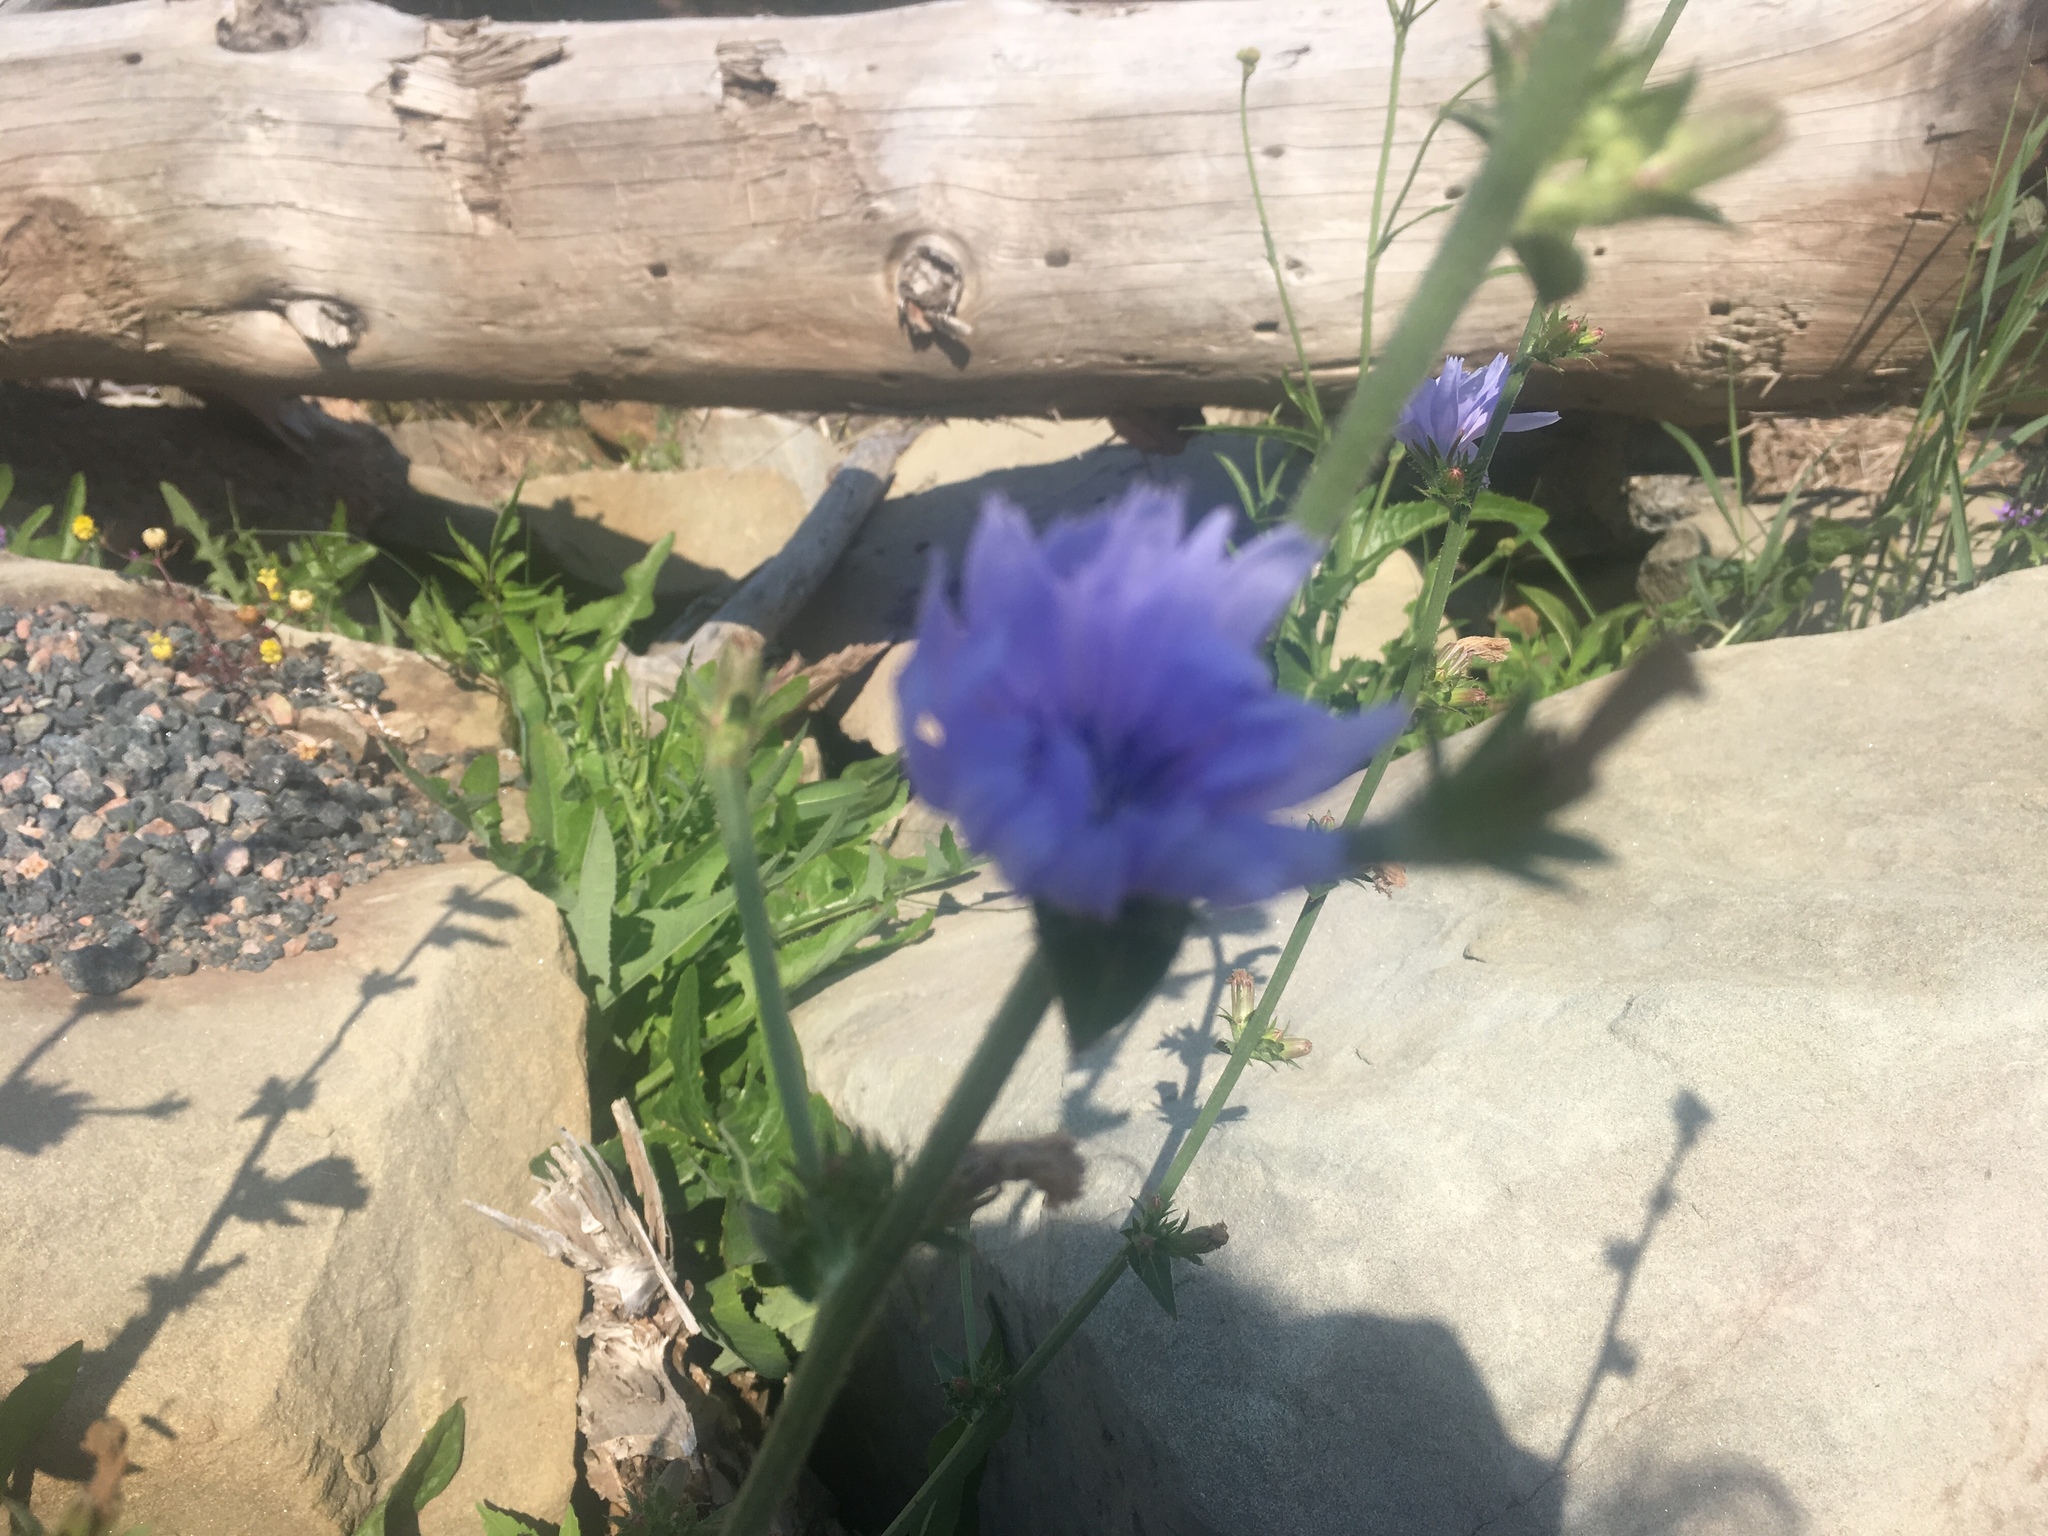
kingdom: Plantae
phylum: Tracheophyta
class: Magnoliopsida
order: Asterales
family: Asteraceae
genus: Cichorium
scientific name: Cichorium intybus
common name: Chicory
